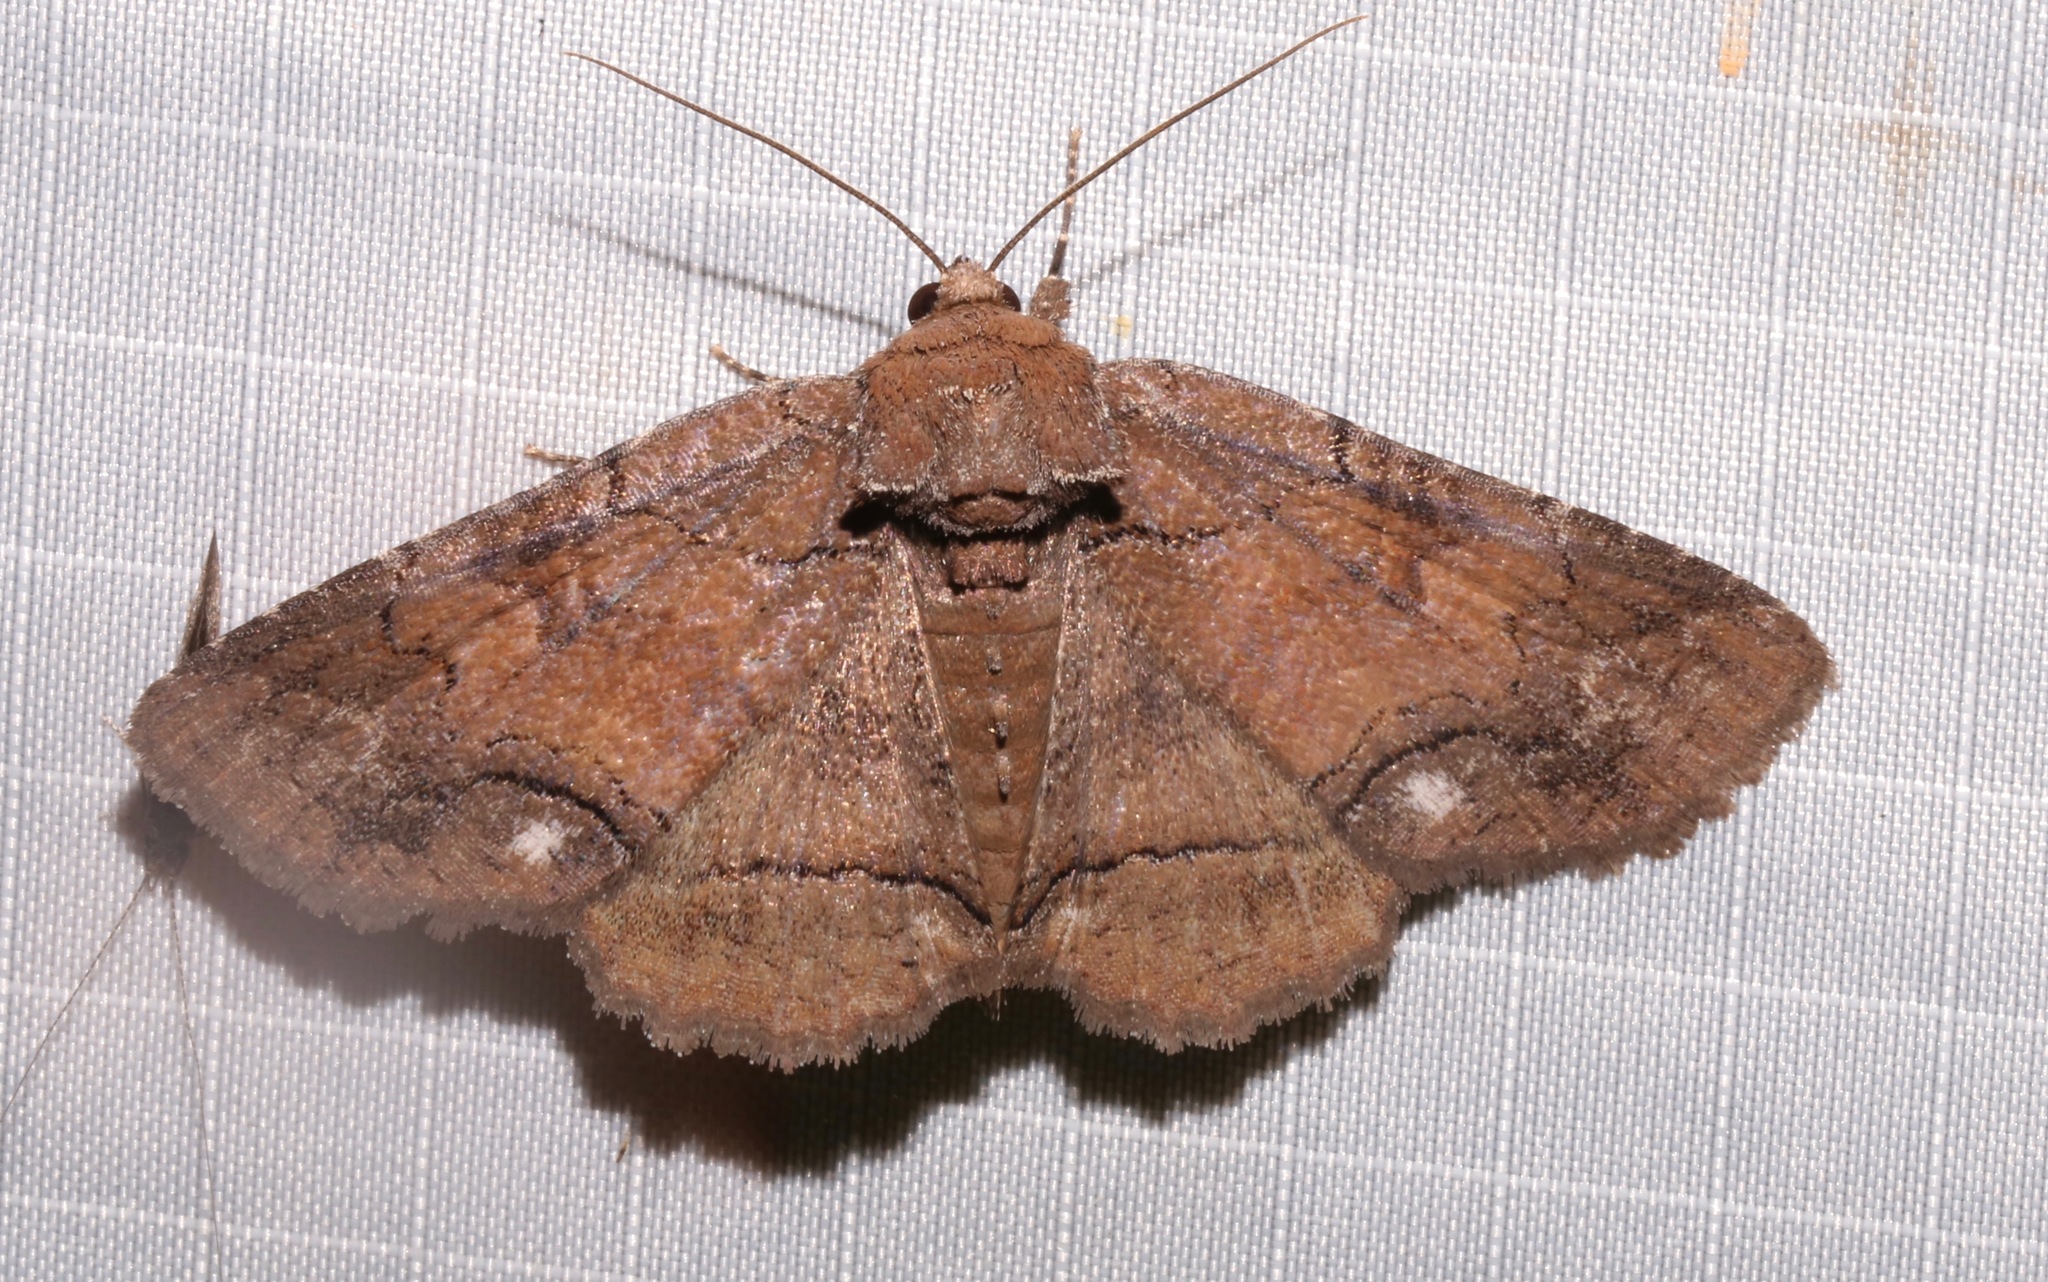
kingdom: Animalia
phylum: Arthropoda
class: Insecta
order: Lepidoptera
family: Erebidae
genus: Zale
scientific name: Zale buchholzi
